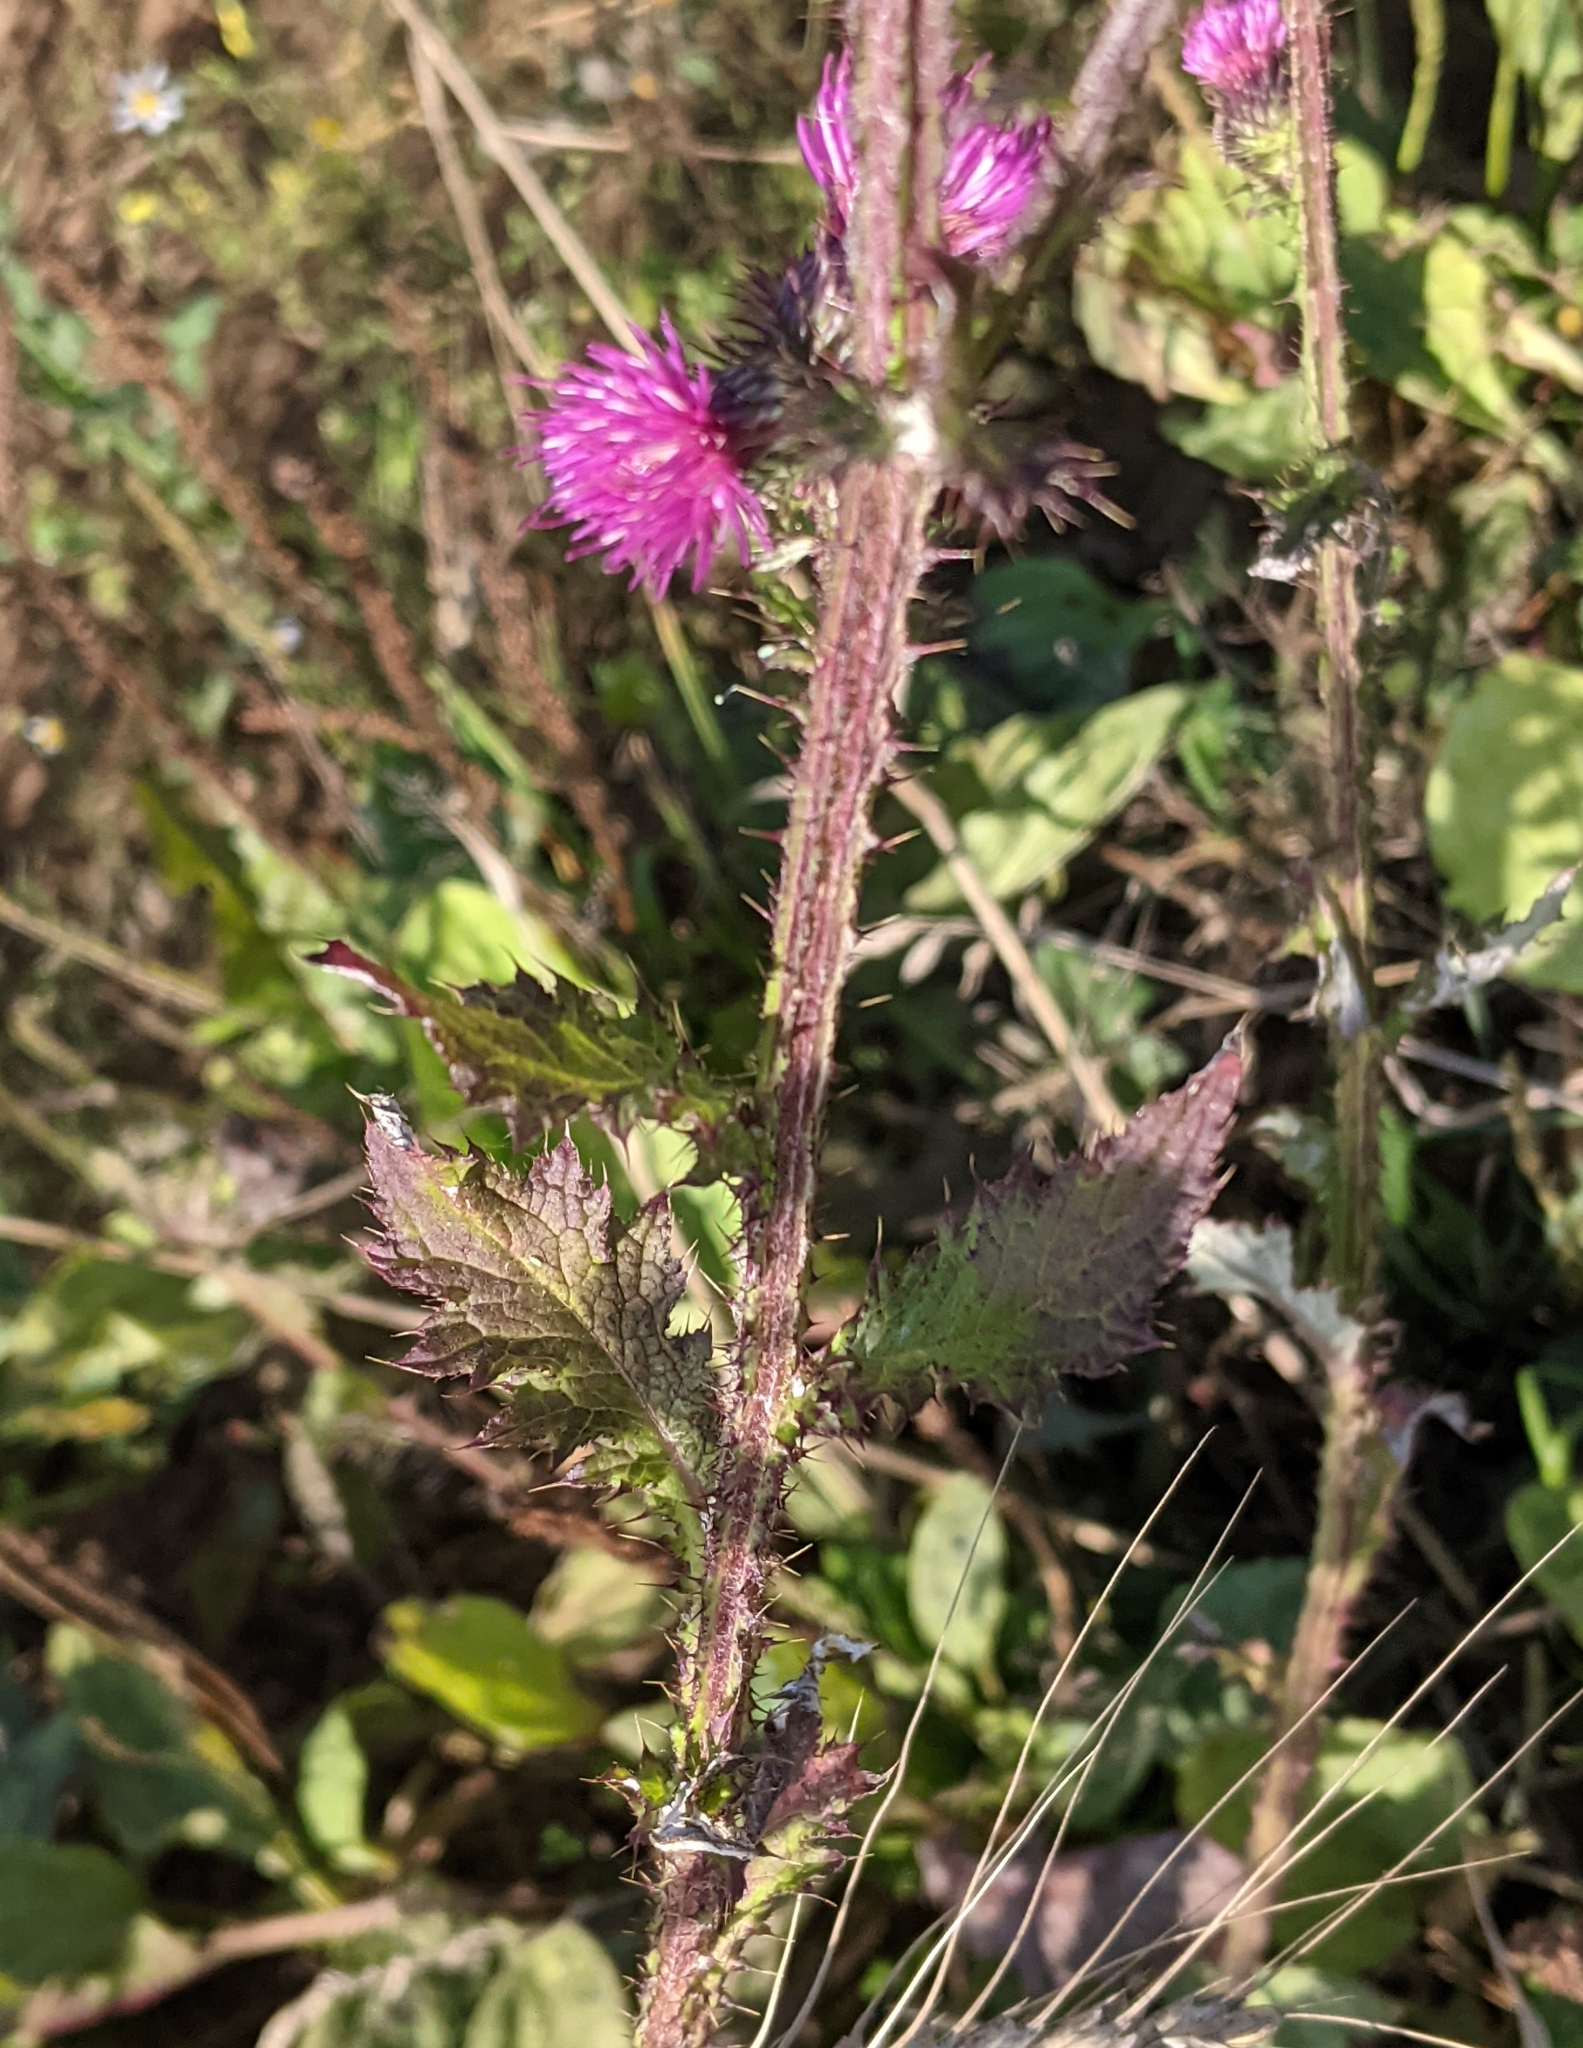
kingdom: Plantae
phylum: Tracheophyta
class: Magnoliopsida
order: Asterales
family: Asteraceae
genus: Carduus
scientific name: Carduus crispus
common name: Welted thistle
